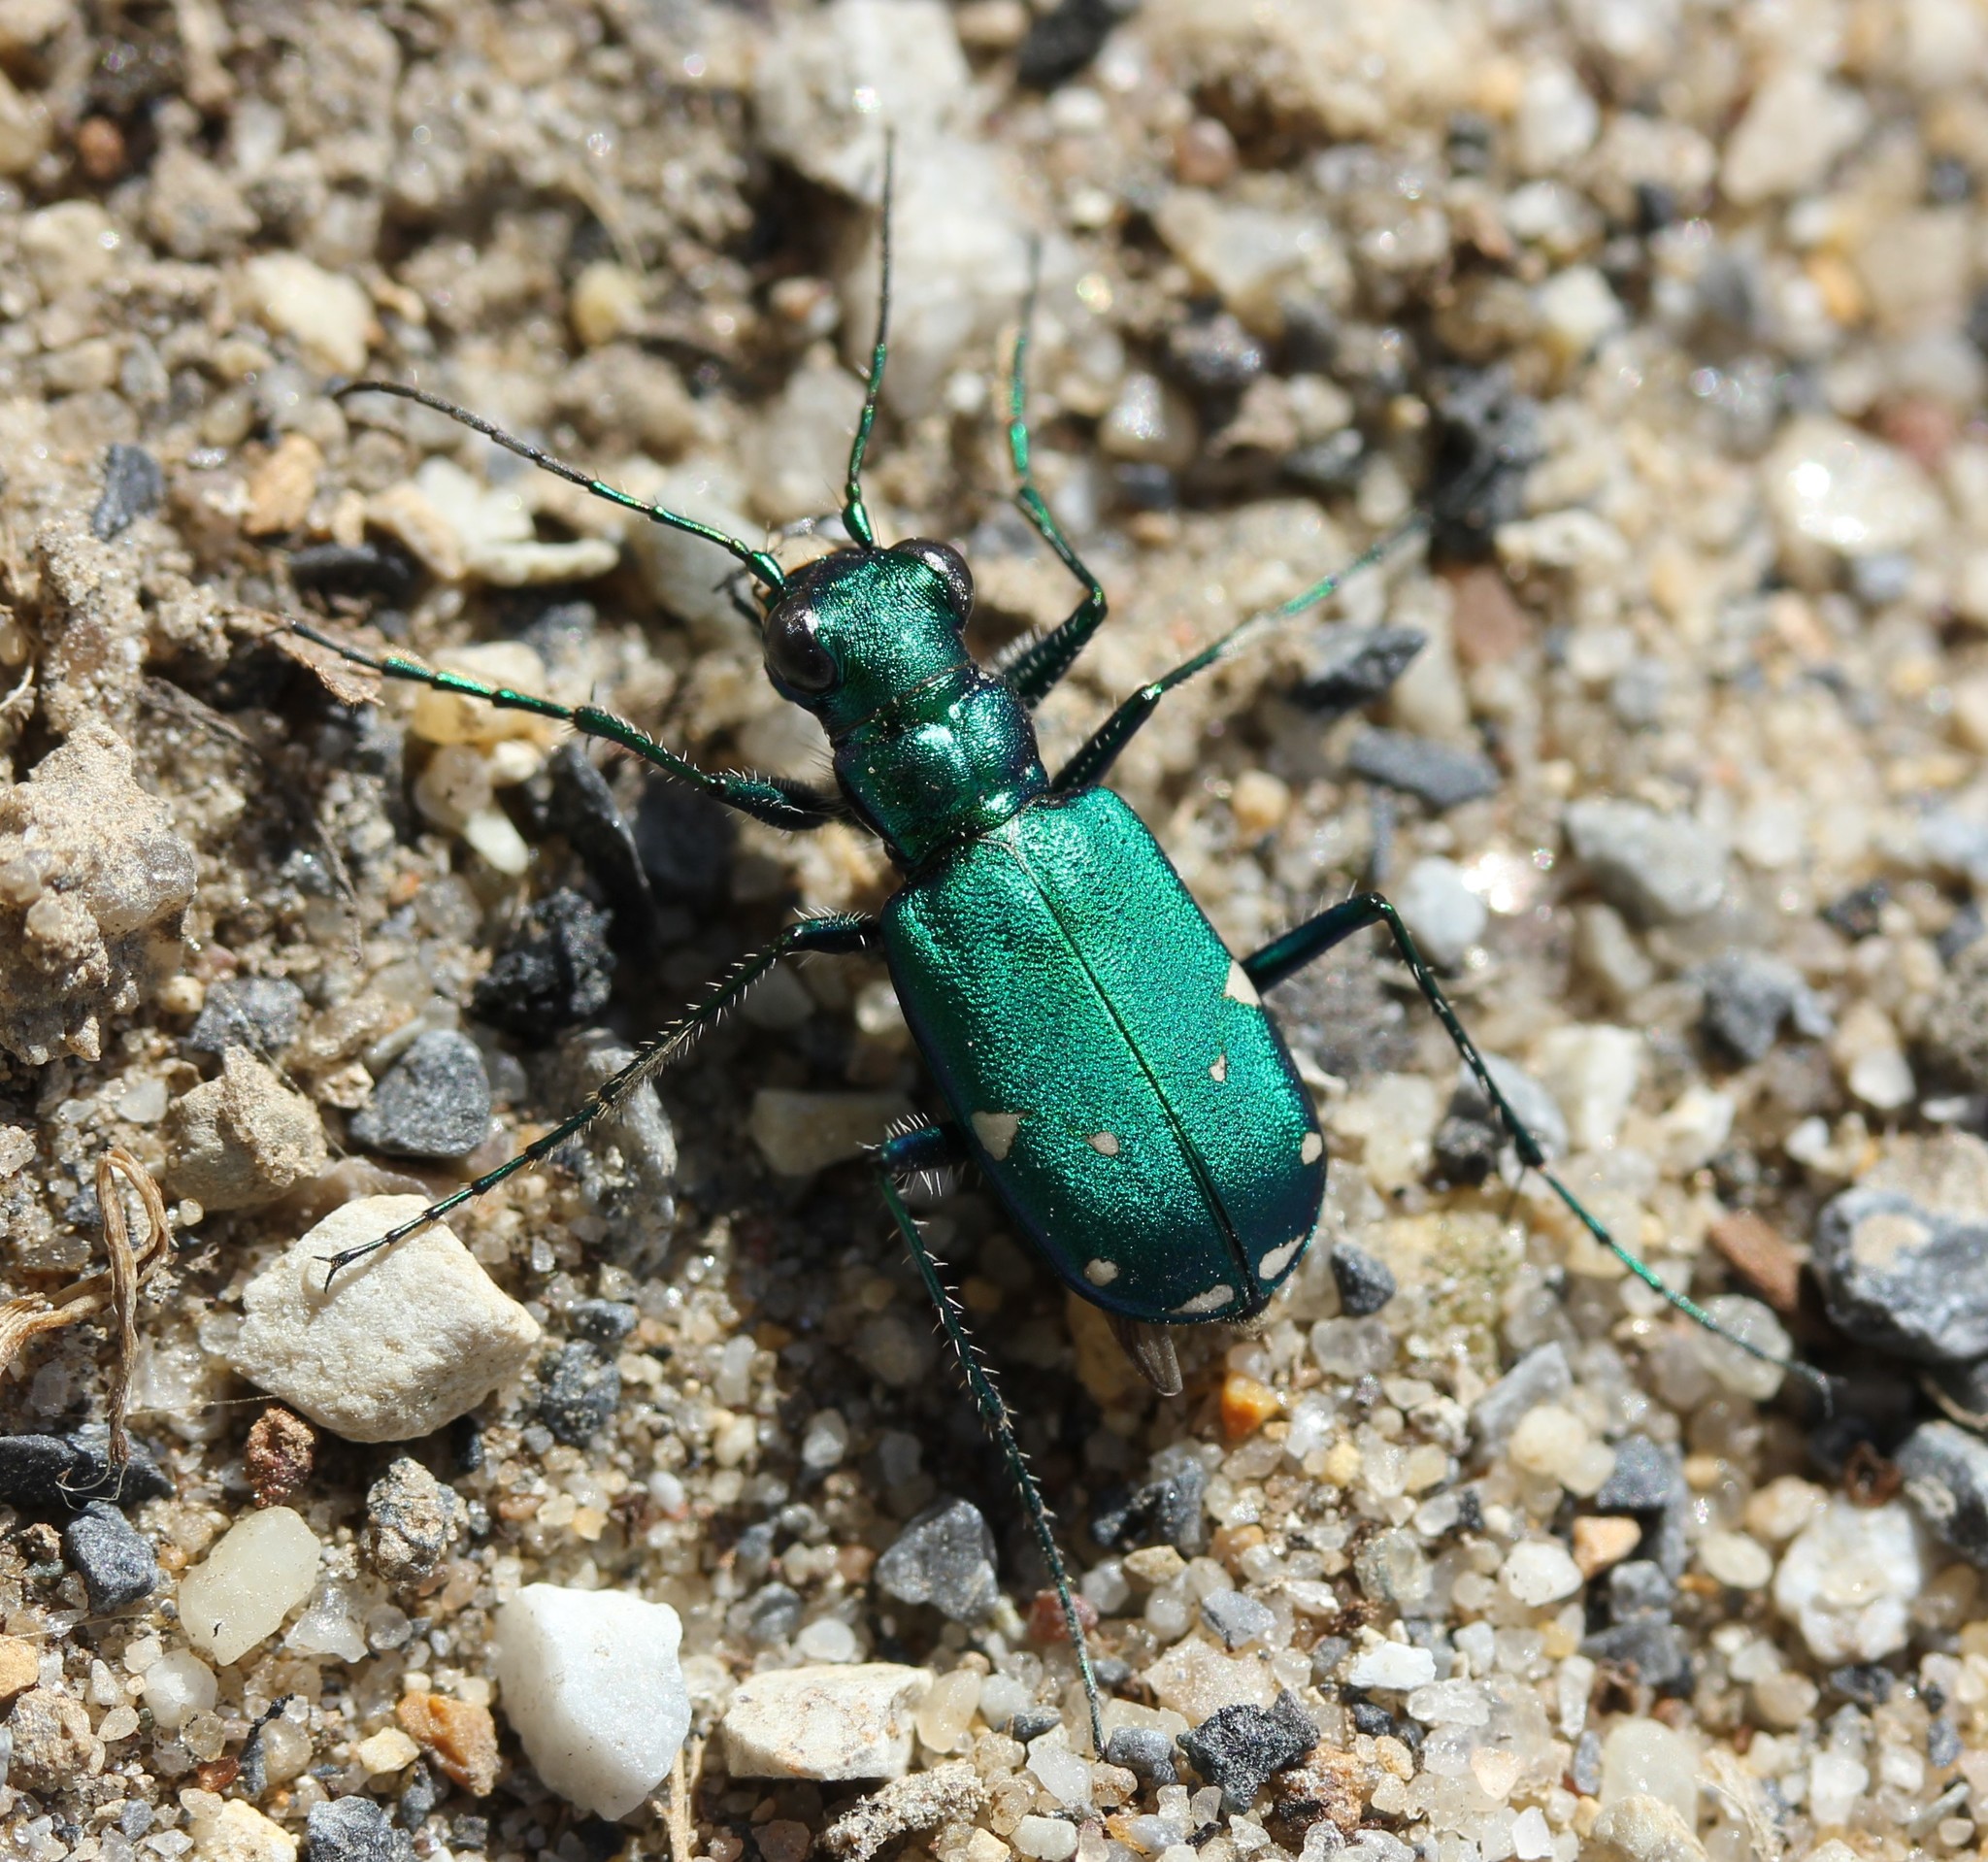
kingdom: Animalia
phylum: Arthropoda
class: Insecta
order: Coleoptera
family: Carabidae
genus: Cicindela
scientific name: Cicindela sexguttata
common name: Six-spotted tiger beetle
